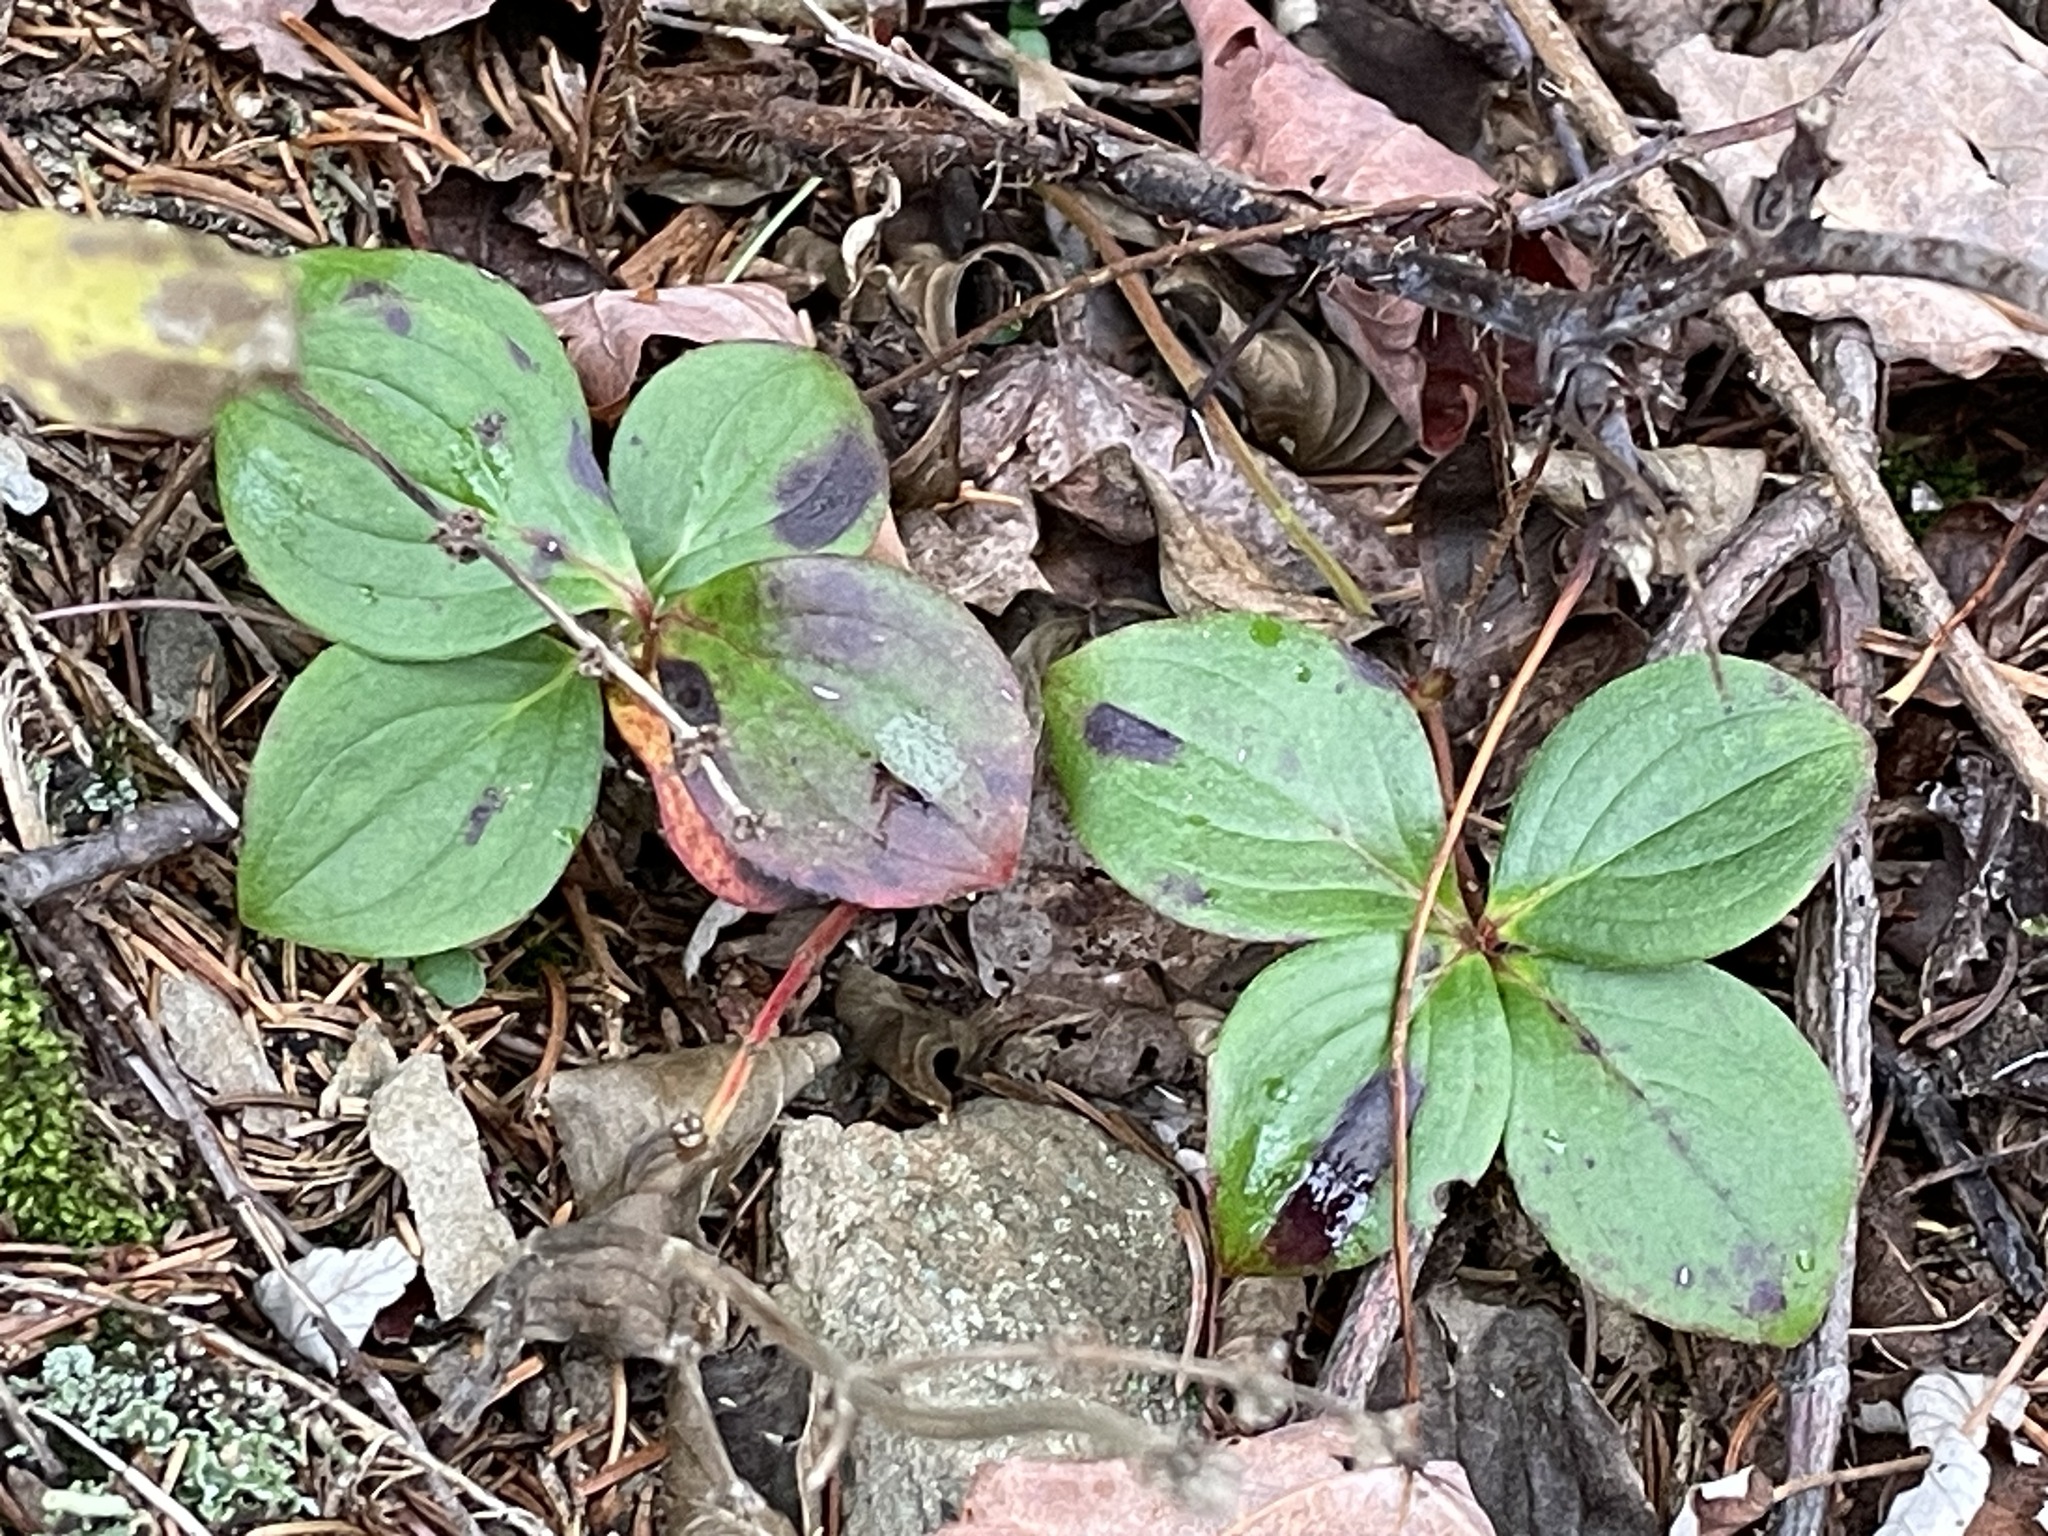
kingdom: Plantae
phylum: Tracheophyta
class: Magnoliopsida
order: Cornales
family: Cornaceae
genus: Cornus
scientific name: Cornus canadensis
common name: Creeping dogwood
